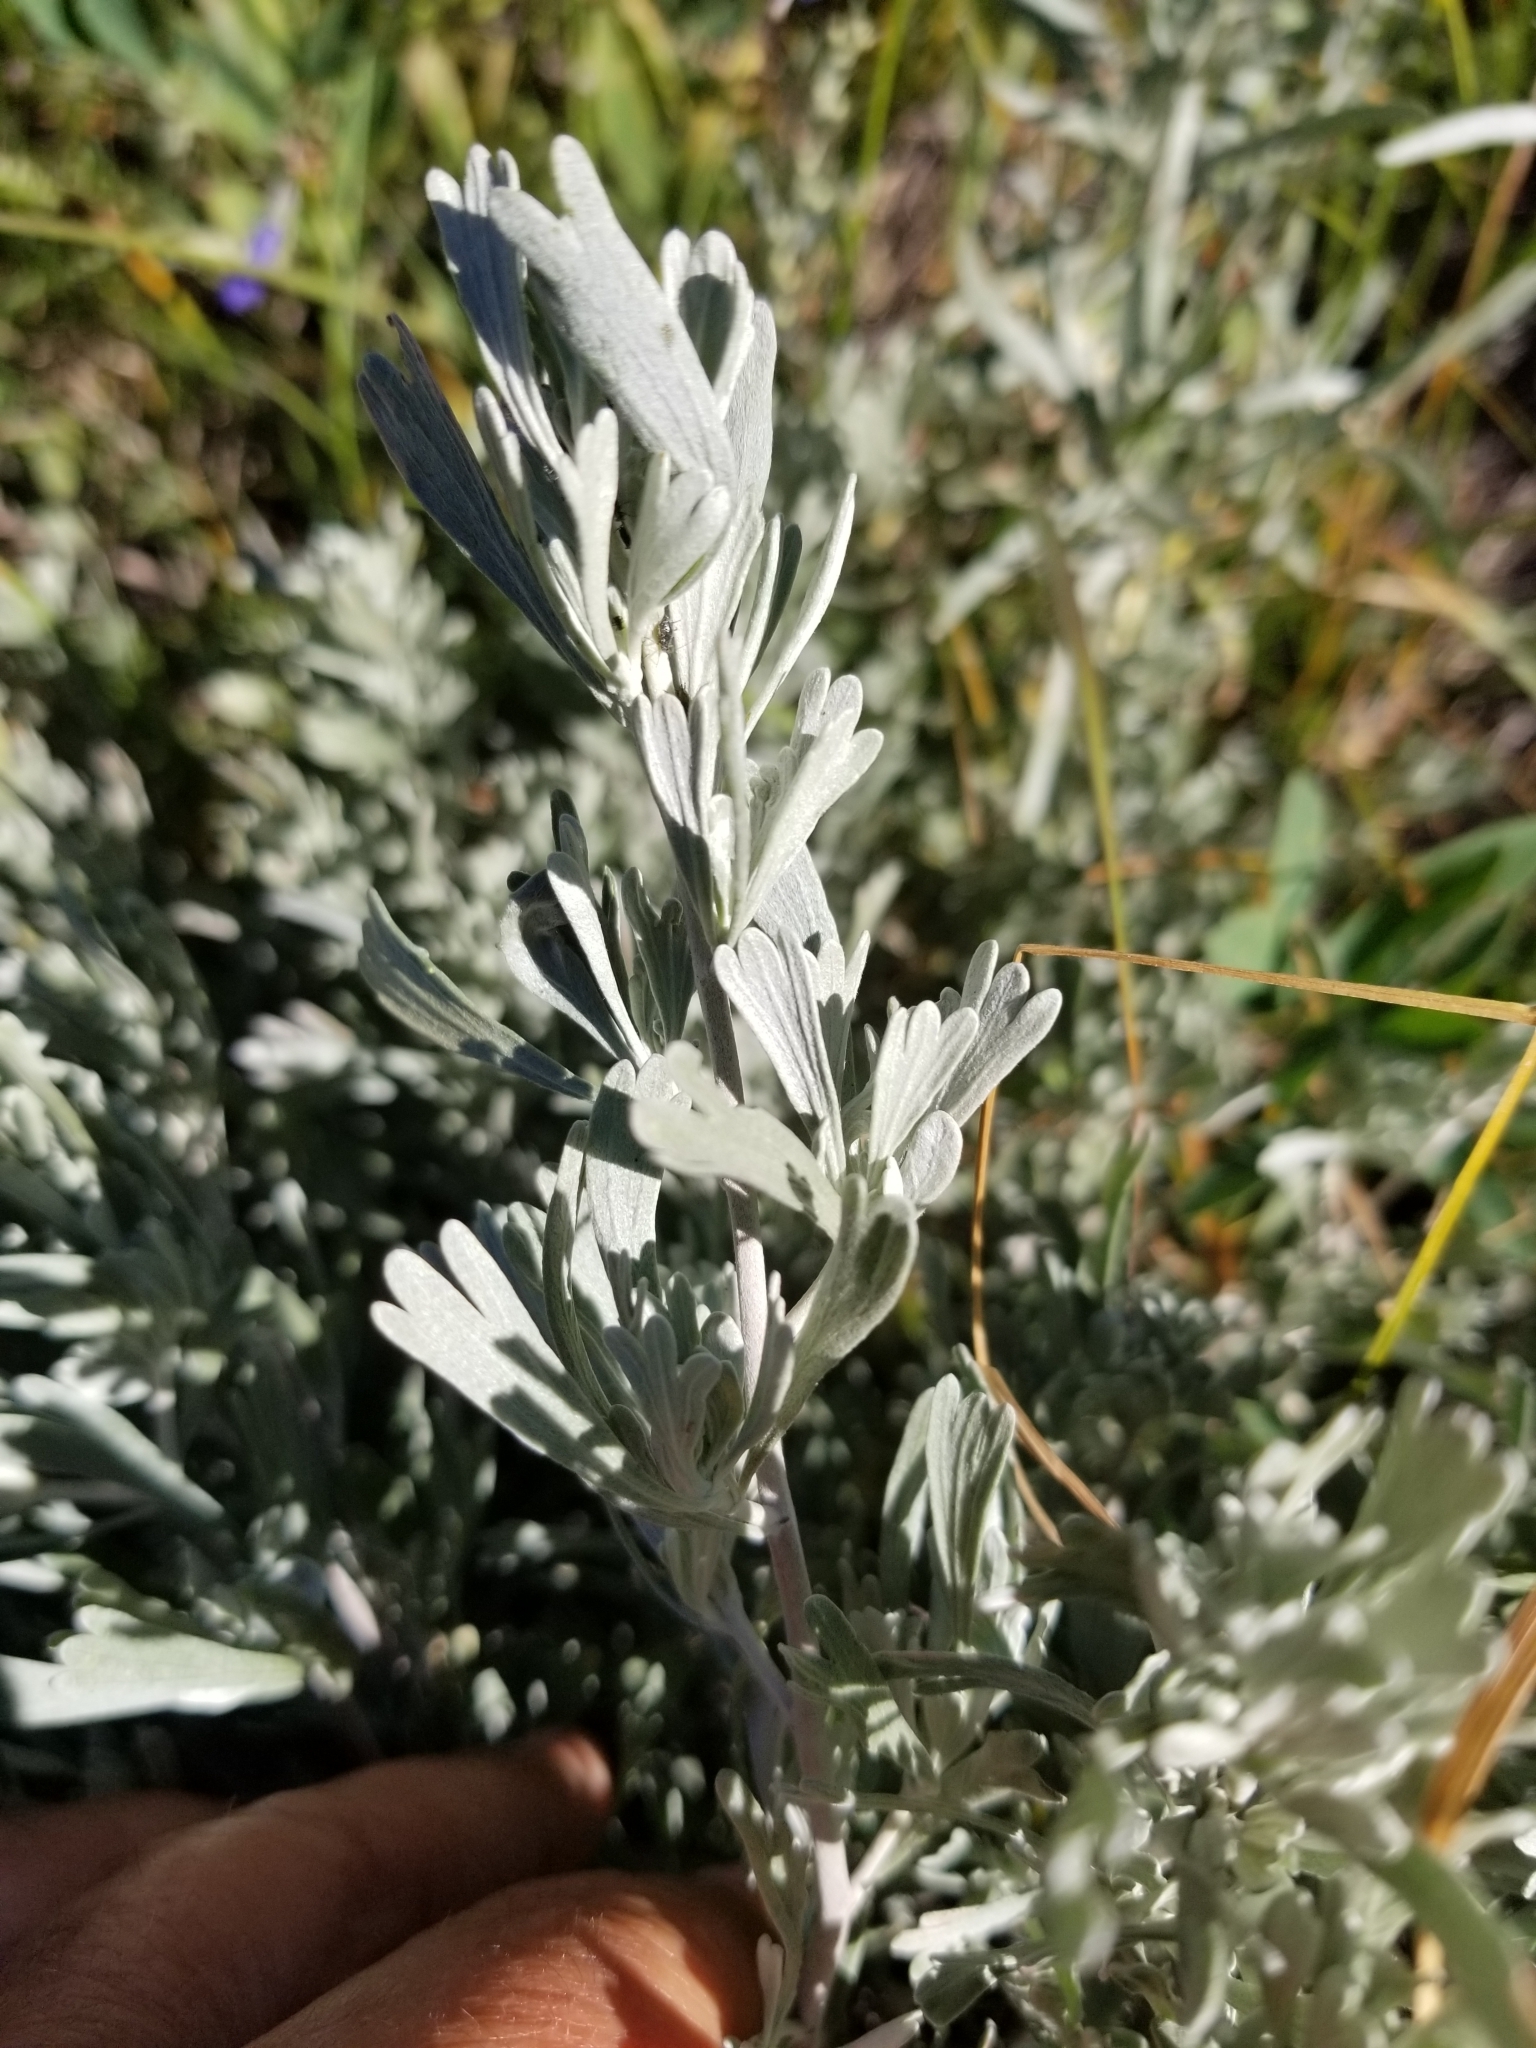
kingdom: Plantae
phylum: Tracheophyta
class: Magnoliopsida
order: Asterales
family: Asteraceae
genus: Artemisia
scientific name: Artemisia tridentata
